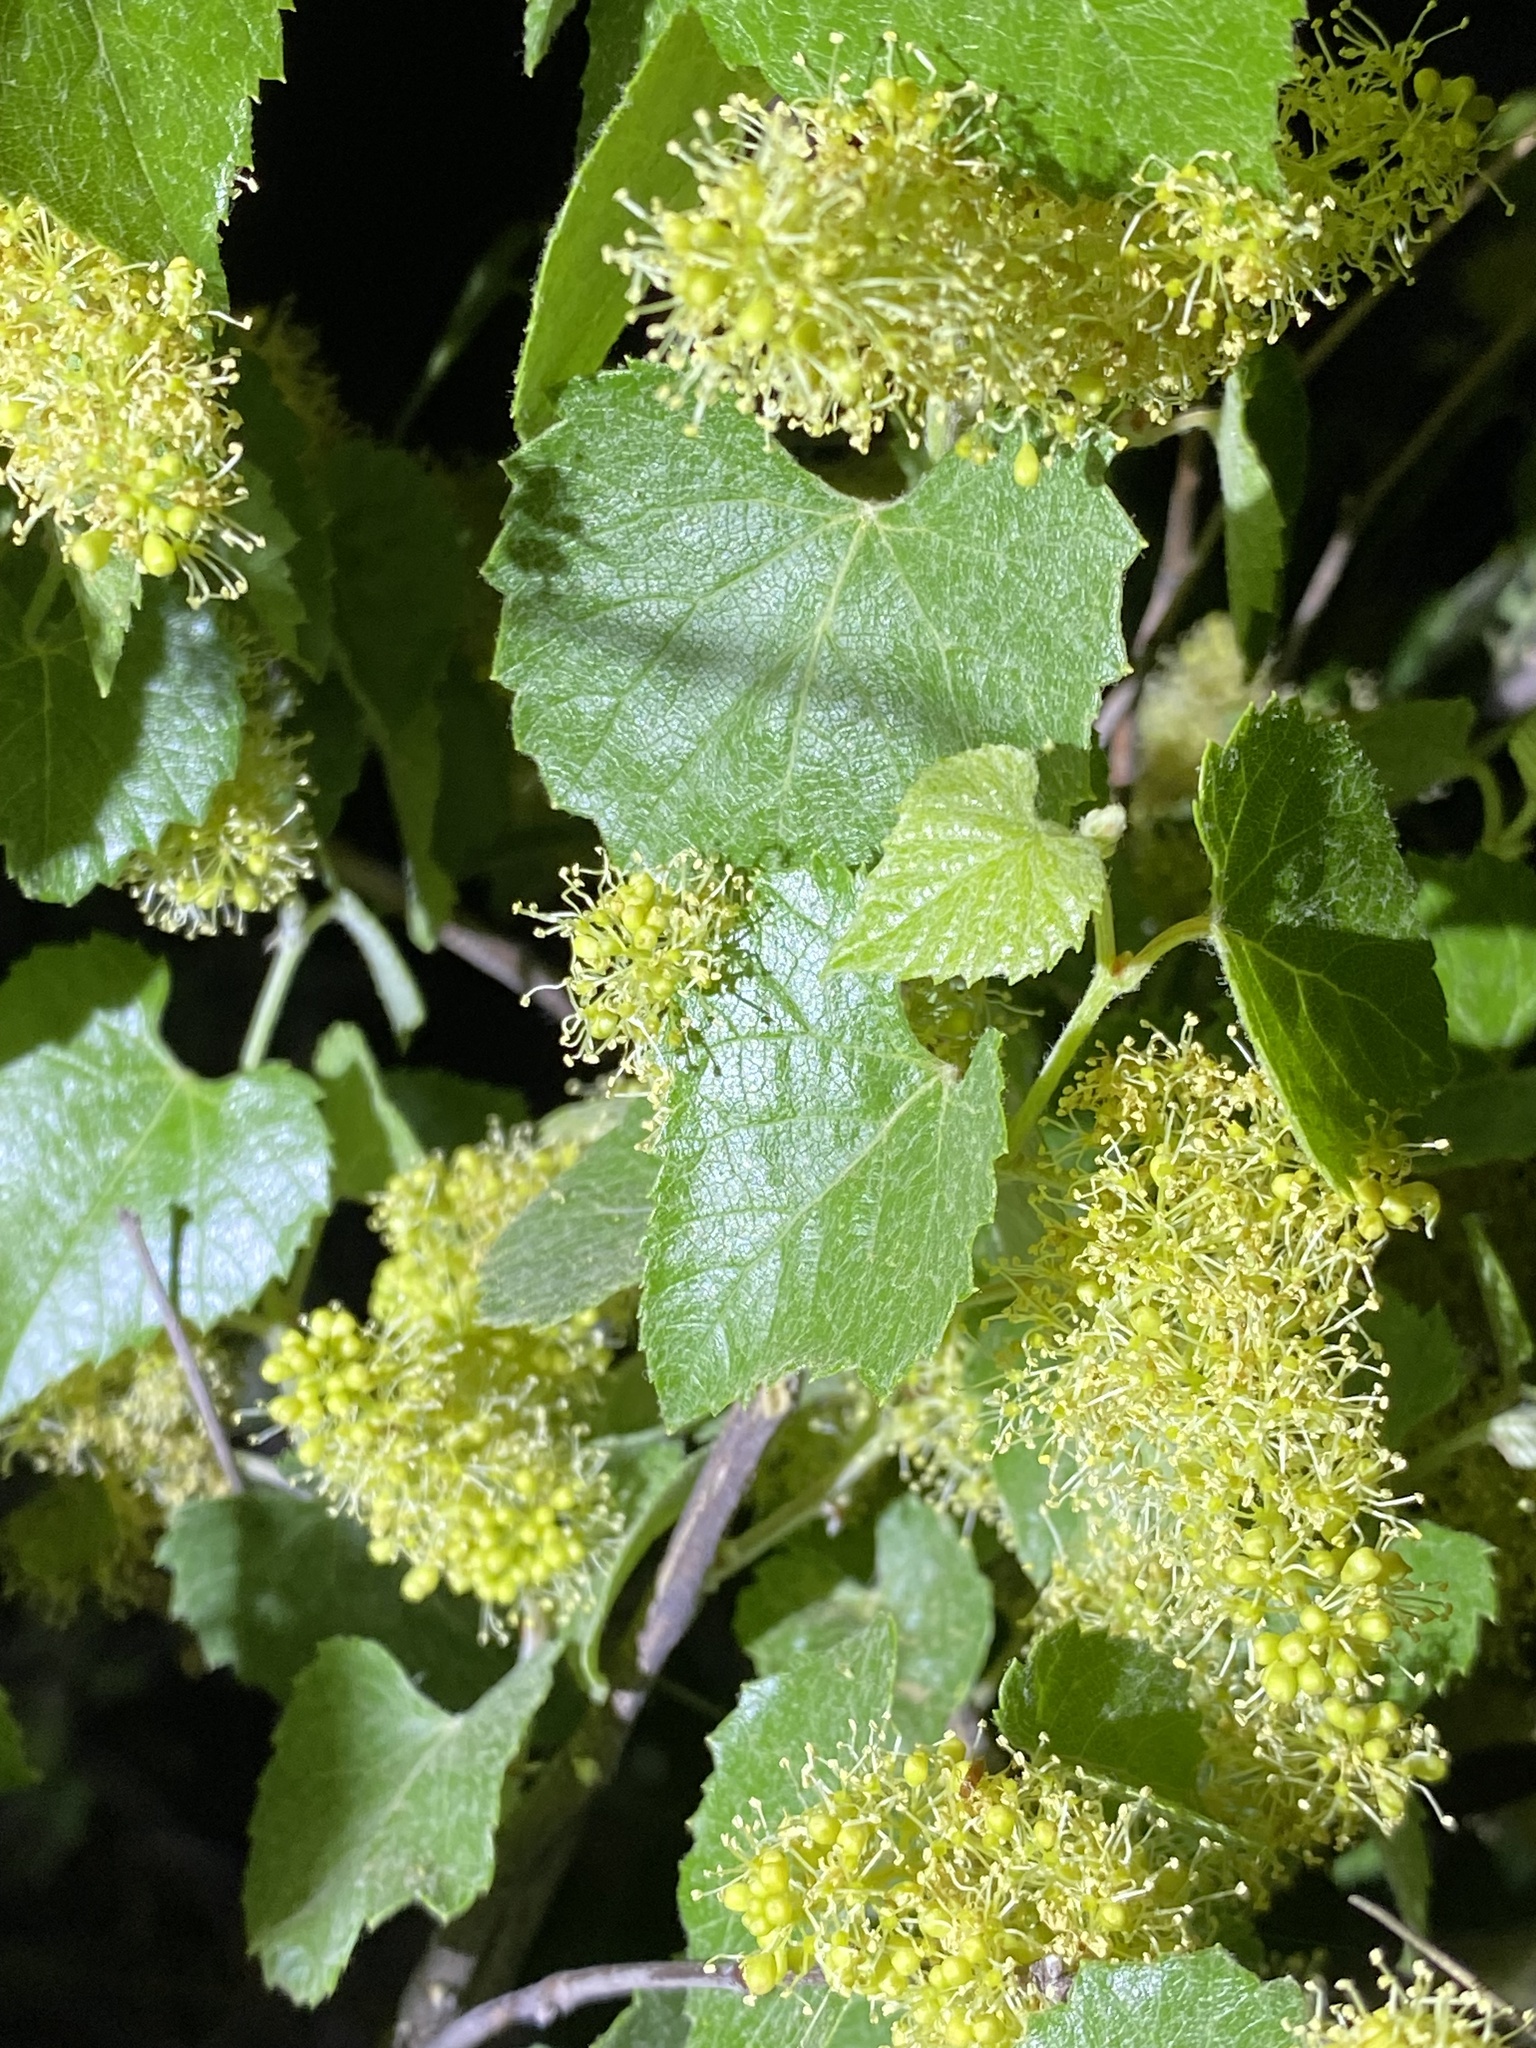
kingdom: Plantae
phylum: Tracheophyta
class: Magnoliopsida
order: Vitales
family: Vitaceae
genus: Vitis
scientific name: Vitis arizonica
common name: Canyon grape
